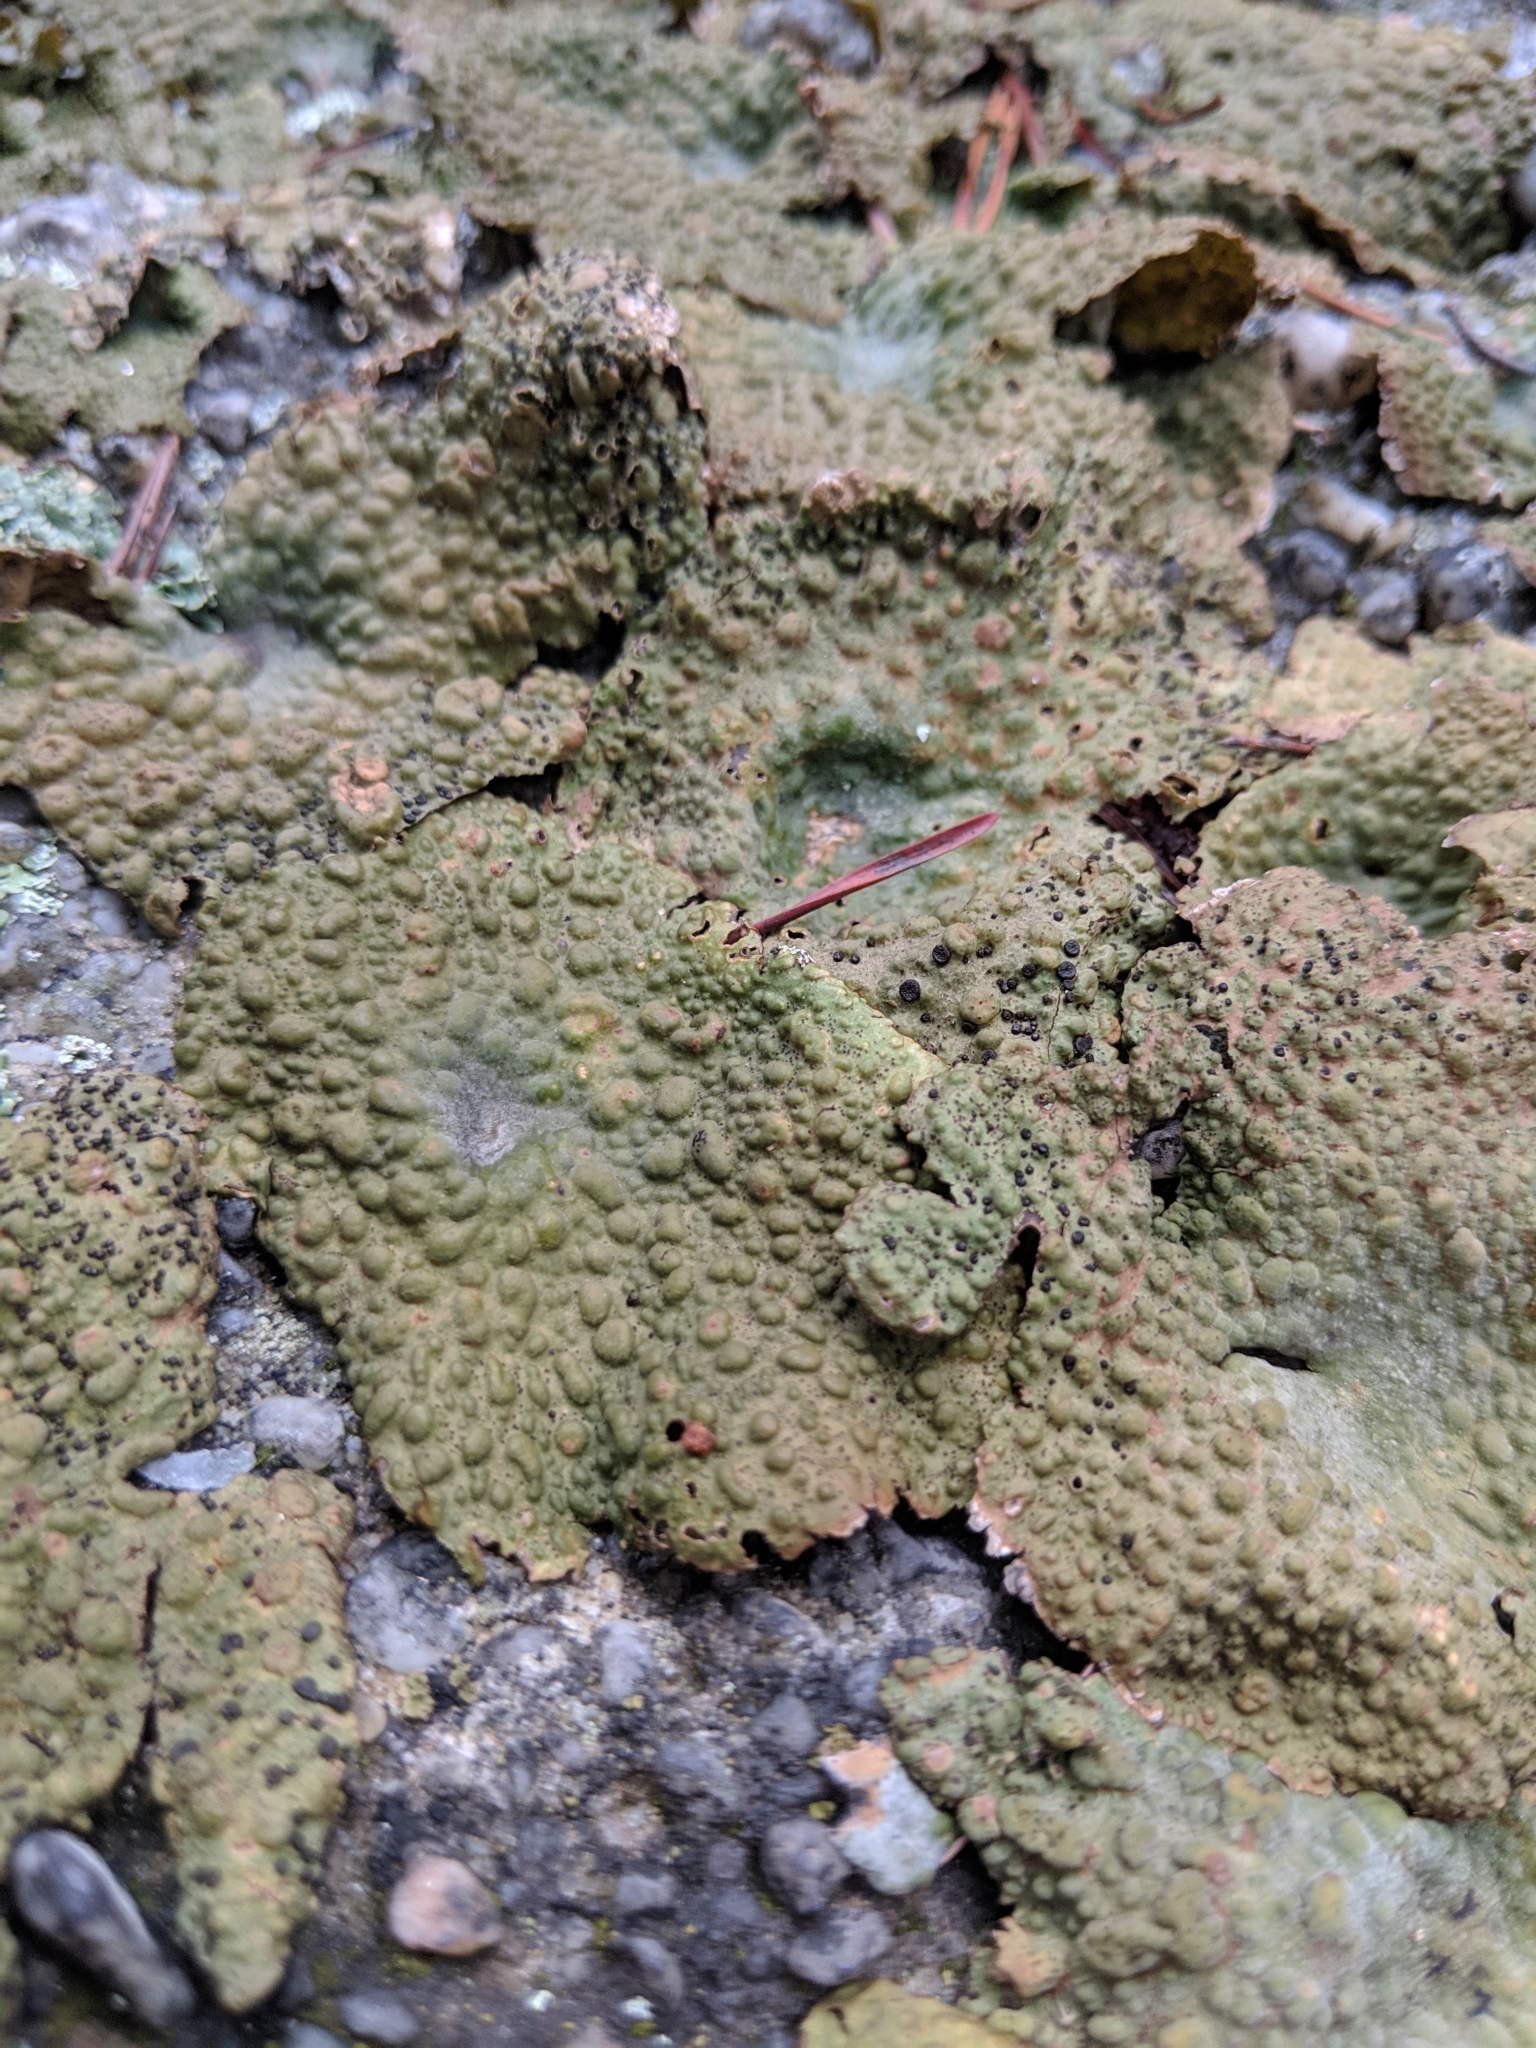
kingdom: Fungi
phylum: Ascomycota
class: Lecanoromycetes
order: Umbilicariales
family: Umbilicariaceae
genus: Lasallia
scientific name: Lasallia papulosa
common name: Common toadskin lichen
